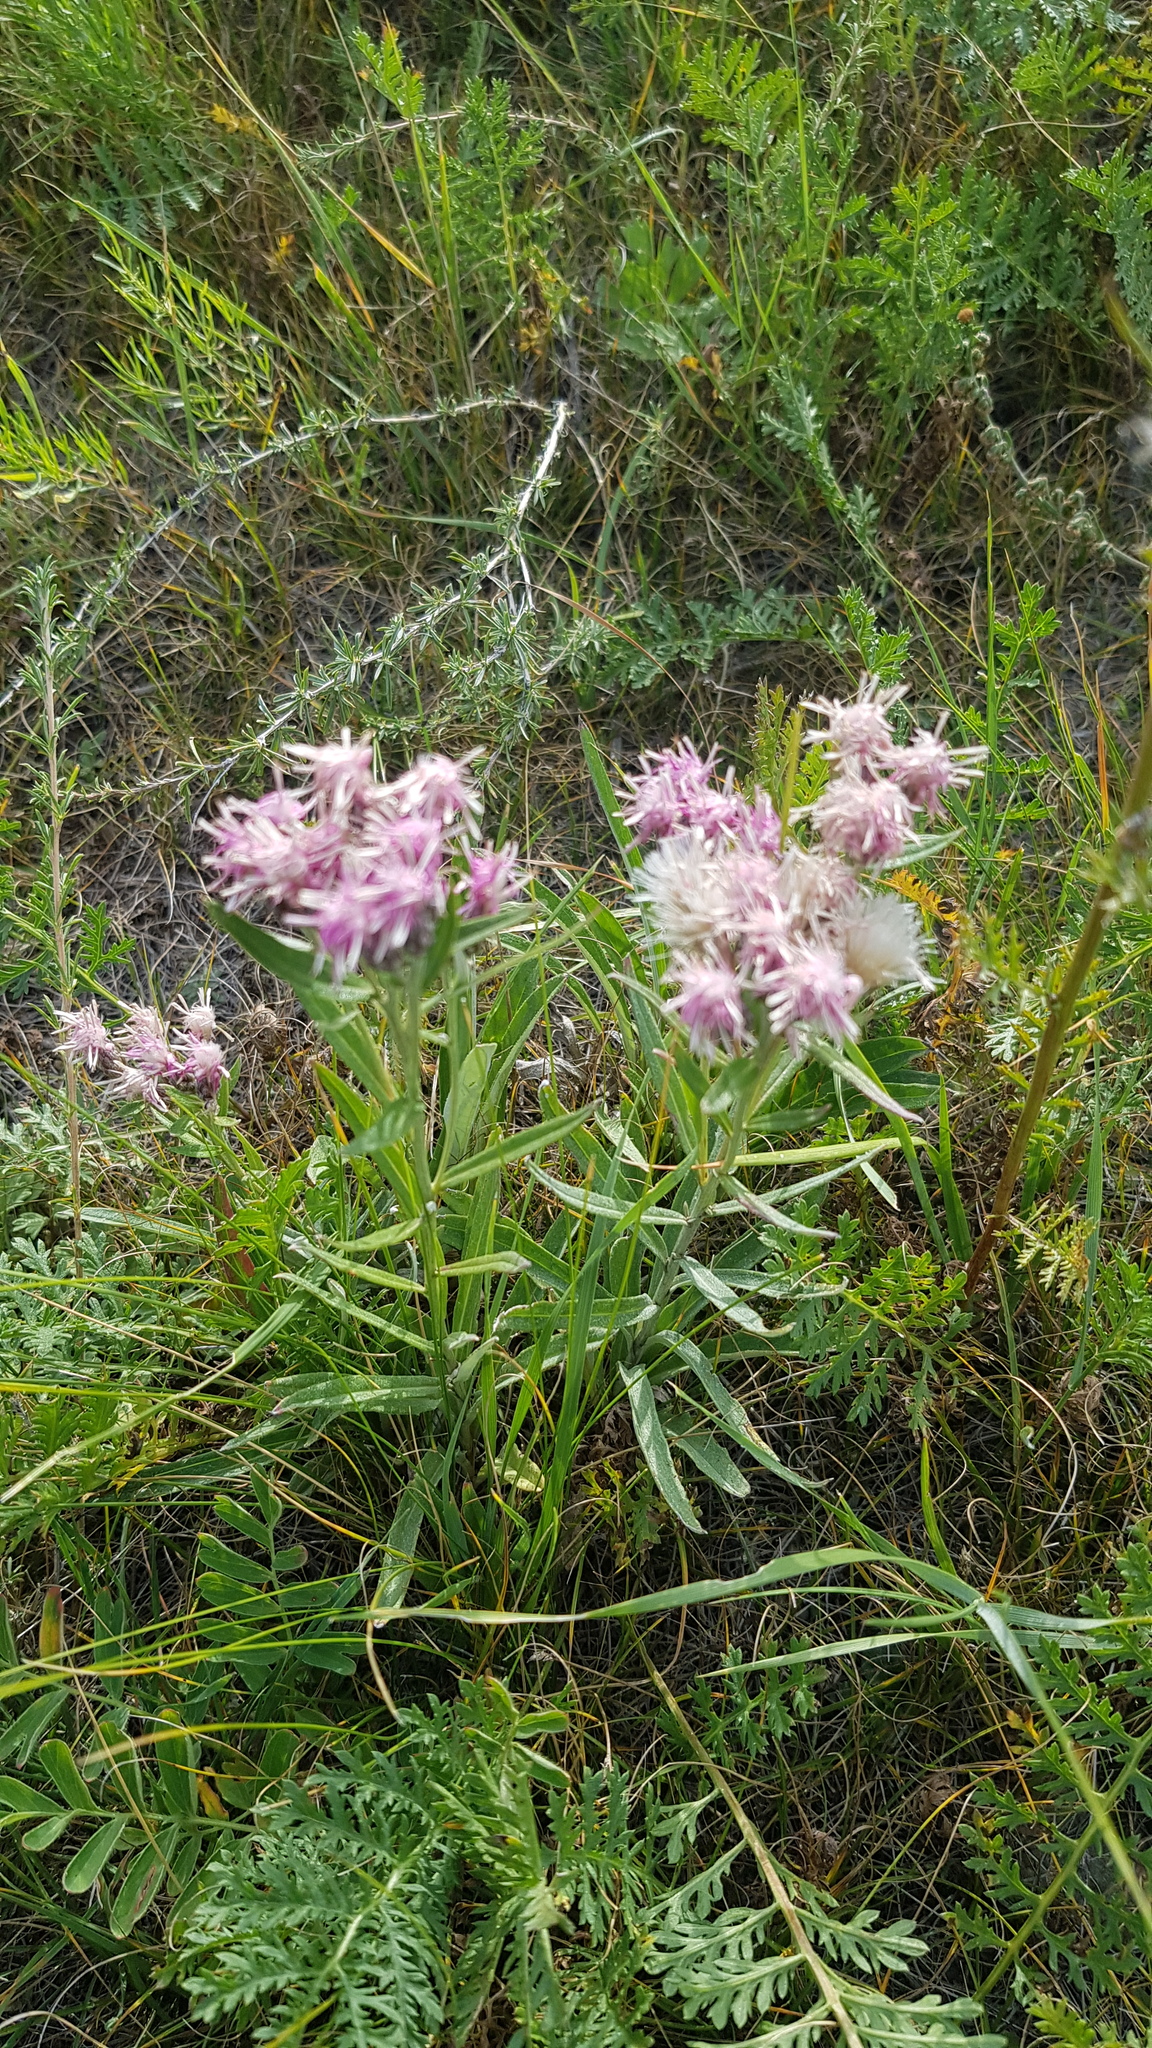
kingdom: Plantae
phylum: Tracheophyta
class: Magnoliopsida
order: Asterales
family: Asteraceae
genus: Saussurea
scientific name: Saussurea salicifolia
